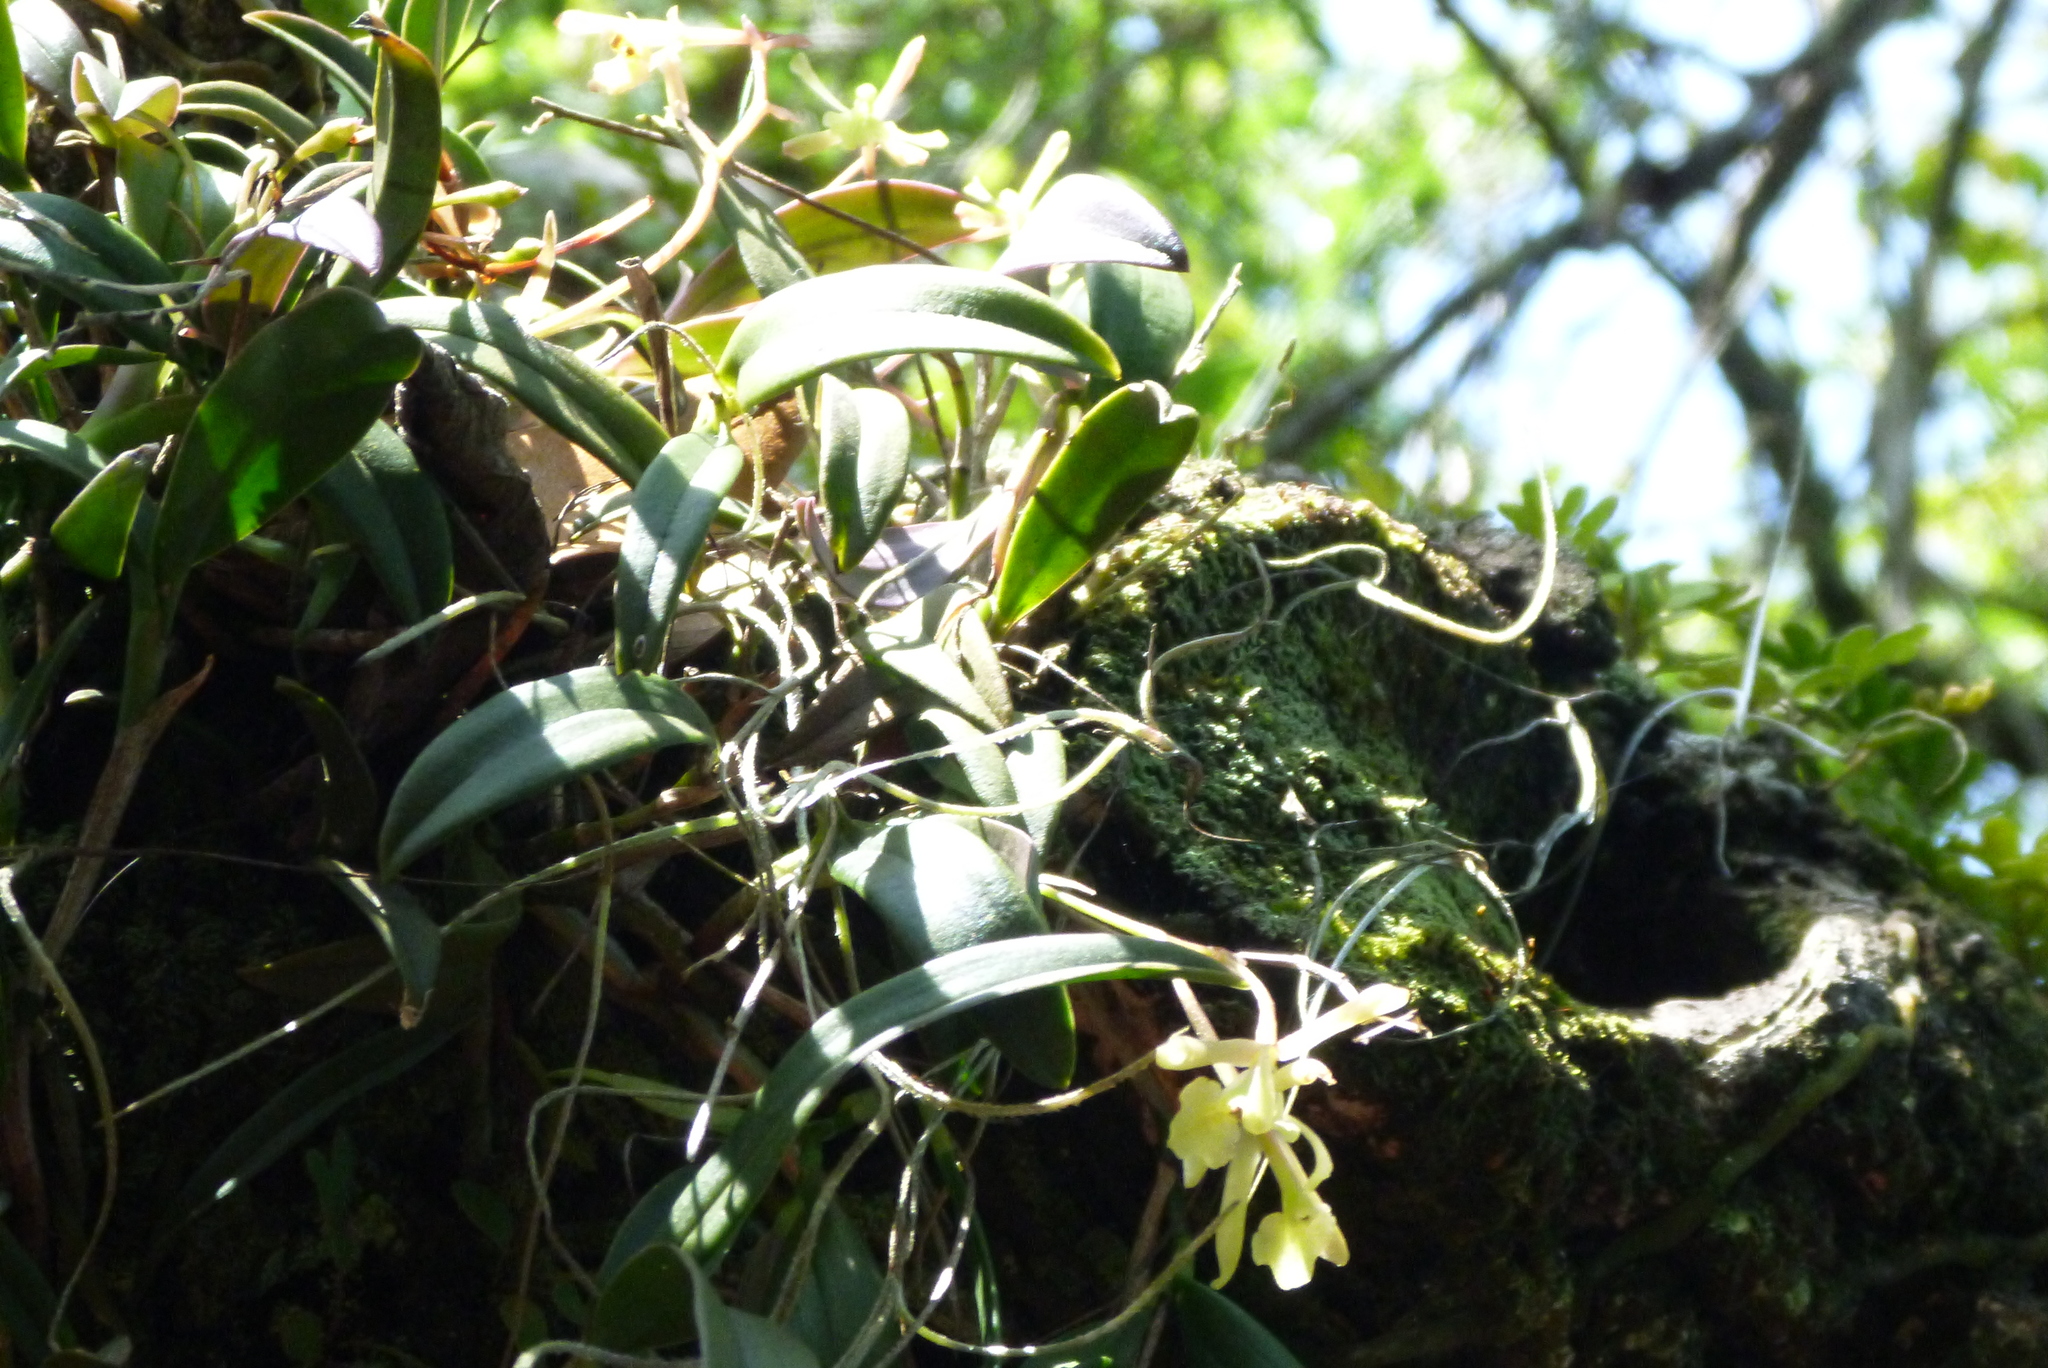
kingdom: Plantae
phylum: Tracheophyta
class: Liliopsida
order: Asparagales
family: Orchidaceae
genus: Epidendrum
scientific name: Epidendrum conopseum
